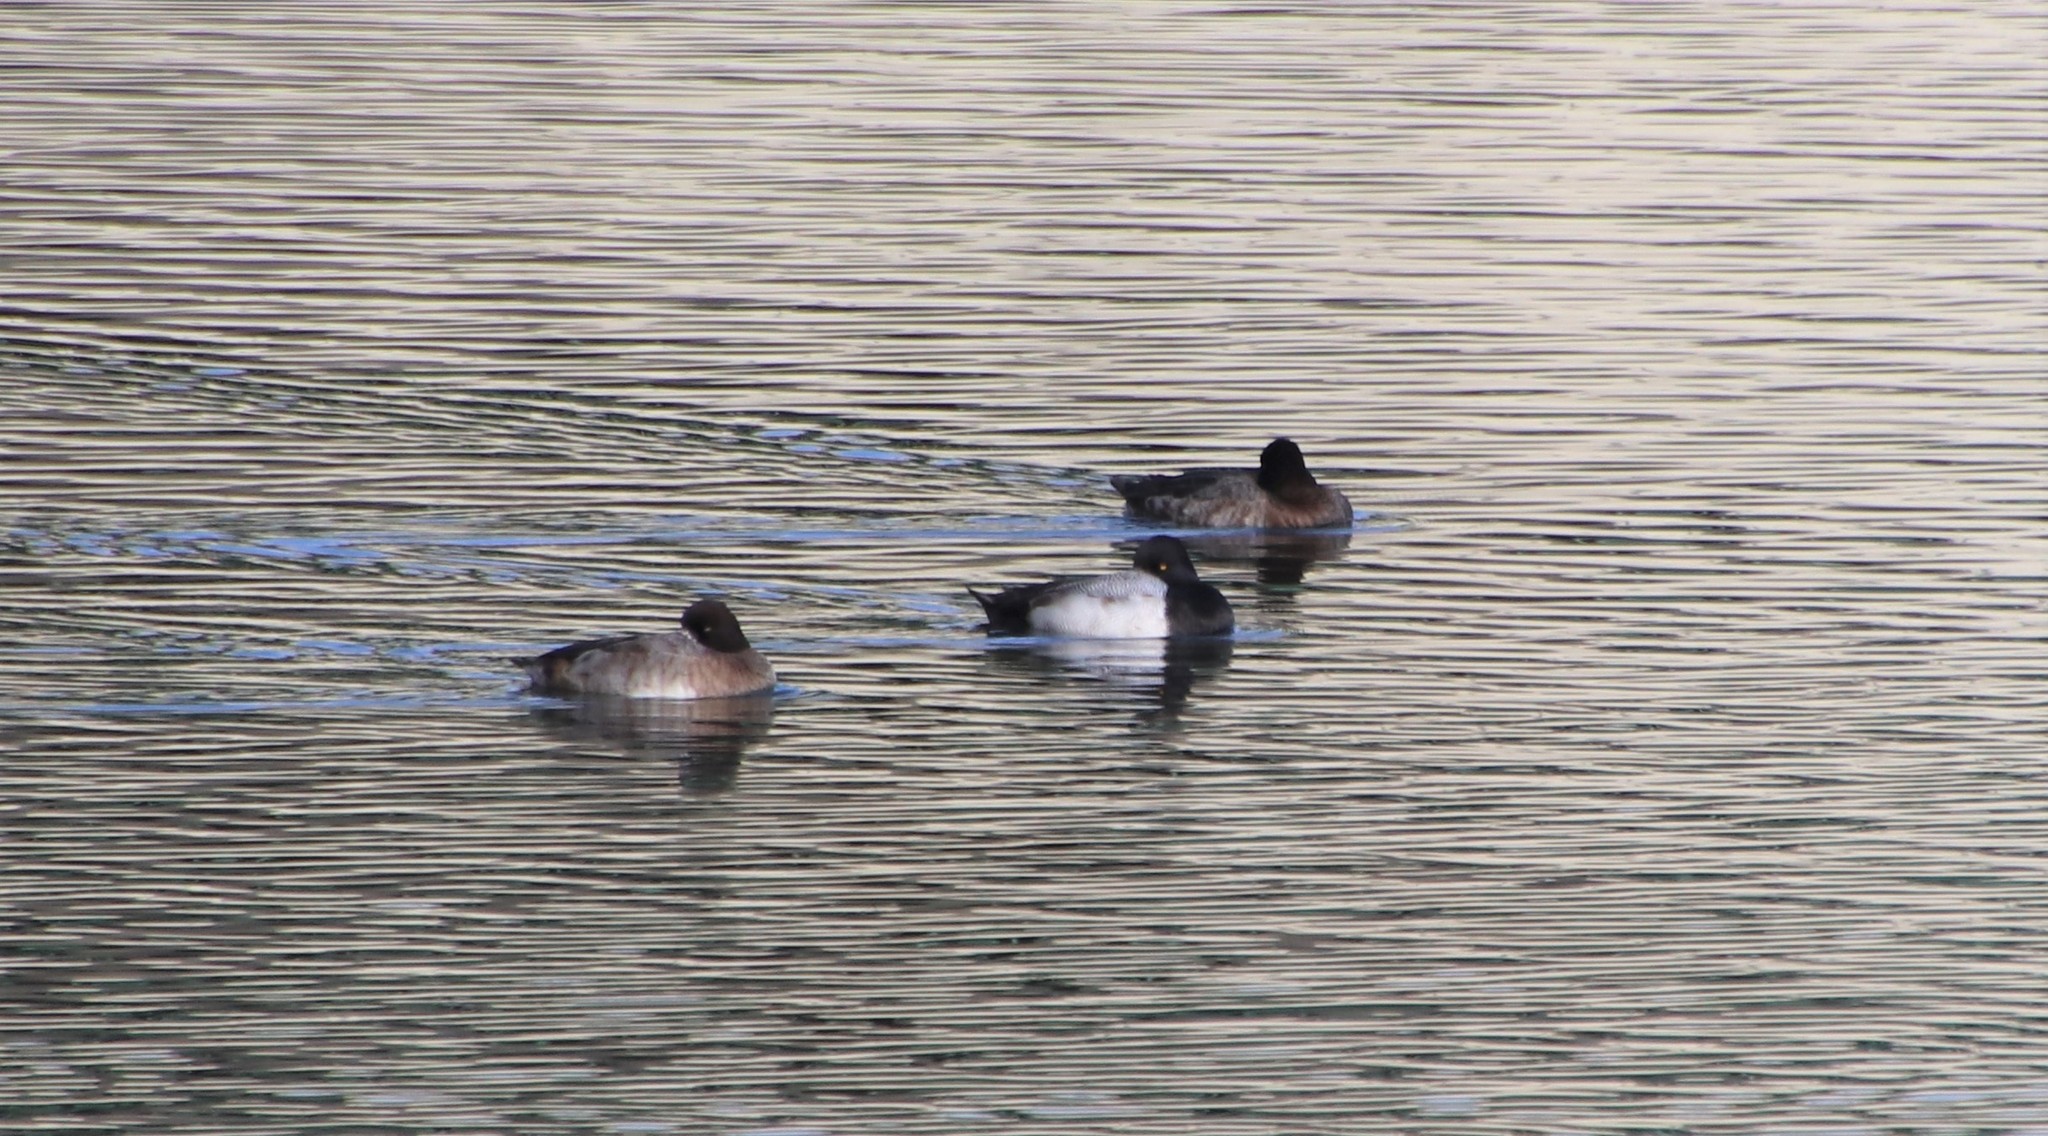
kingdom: Animalia
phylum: Chordata
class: Aves
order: Anseriformes
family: Anatidae
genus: Aythya
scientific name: Aythya affinis
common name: Lesser scaup
